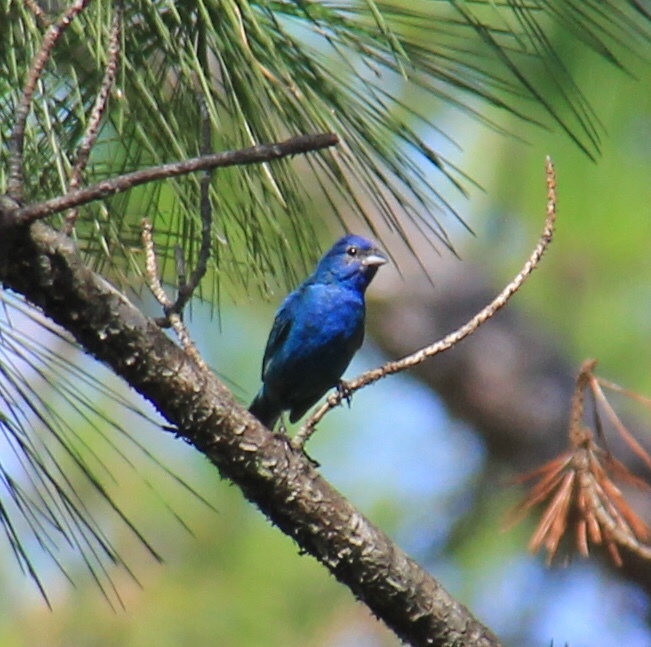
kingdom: Animalia
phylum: Chordata
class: Aves
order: Passeriformes
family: Cardinalidae
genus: Passerina
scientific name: Passerina cyanea
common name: Indigo bunting
